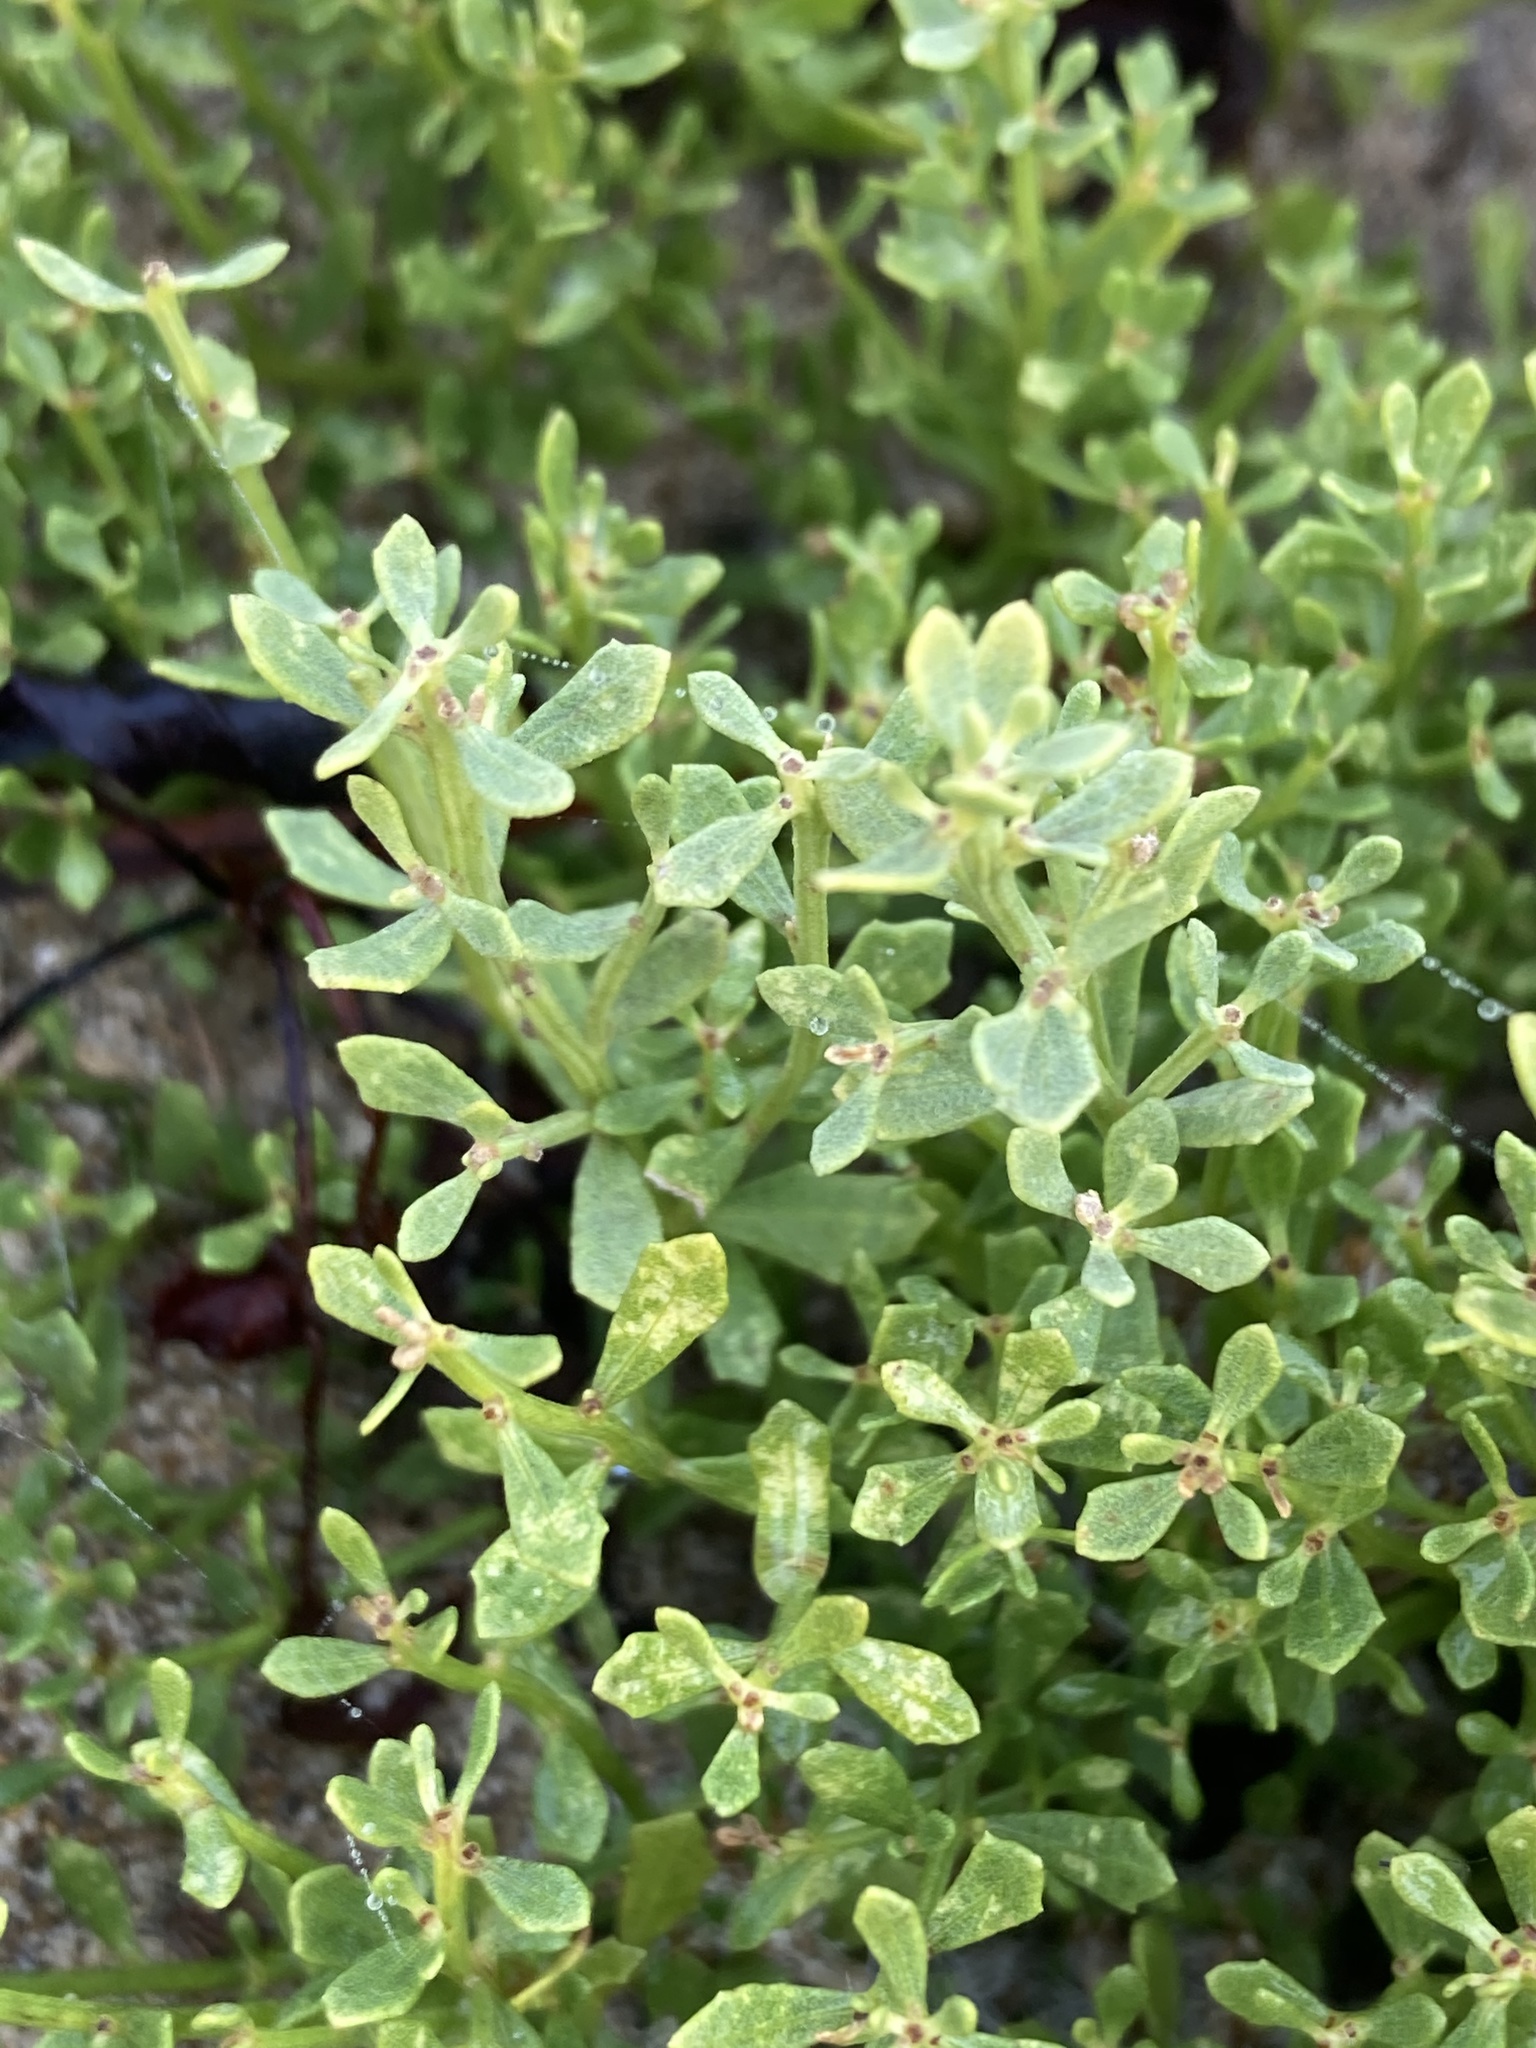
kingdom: Plantae
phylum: Tracheophyta
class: Magnoliopsida
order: Asterales
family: Asteraceae
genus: Baccharis
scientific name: Baccharis pilularis
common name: Coyotebrush
